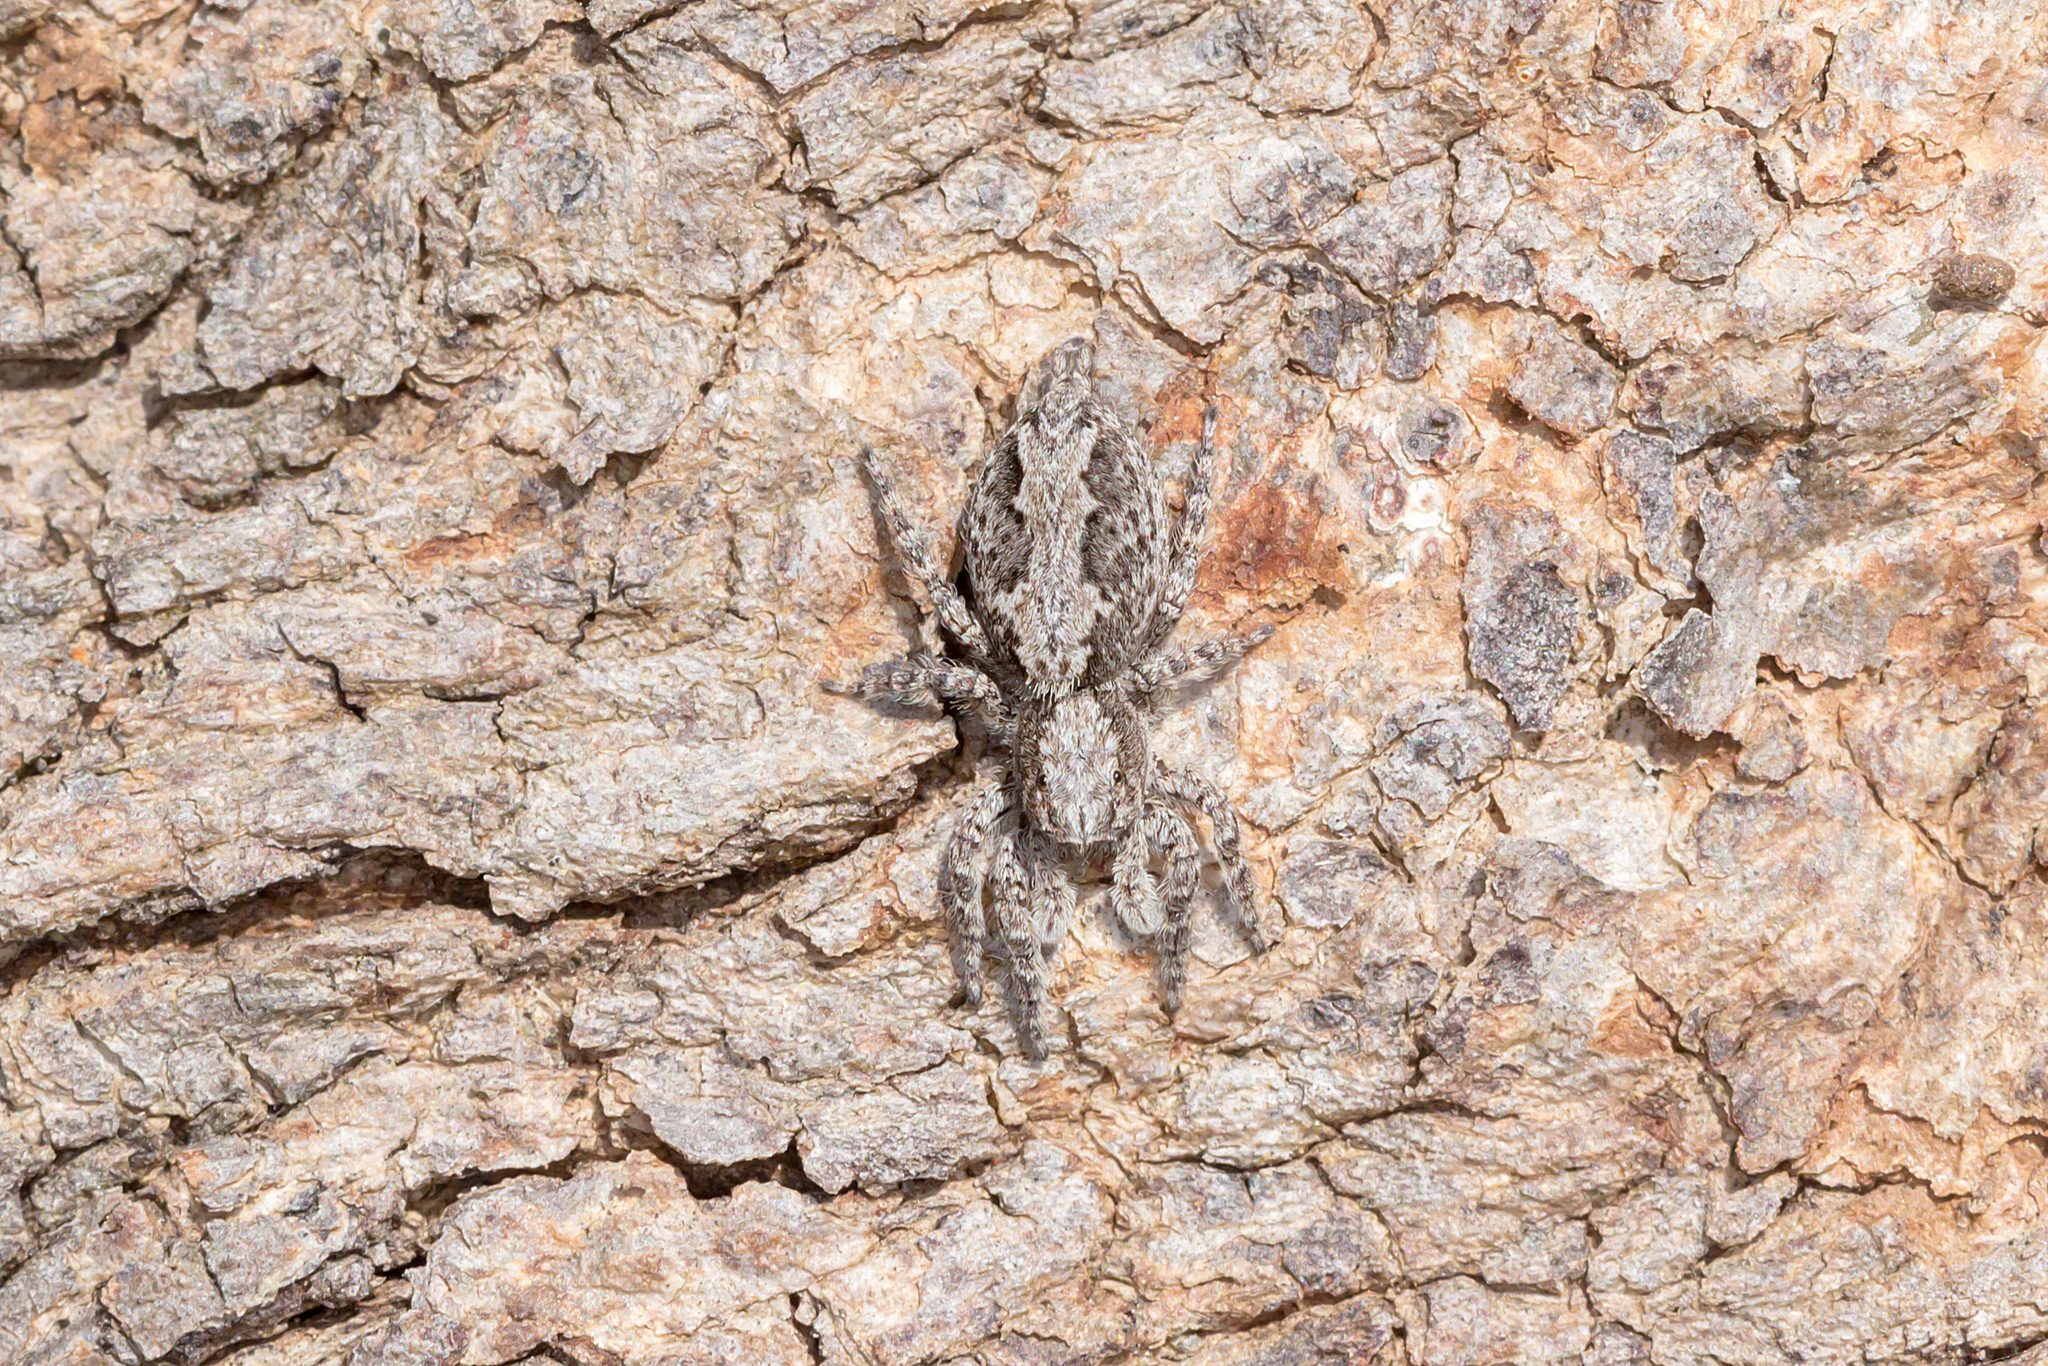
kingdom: Animalia
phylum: Arthropoda
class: Arachnida
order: Araneae
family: Salticidae
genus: Clynotis
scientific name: Clynotis severus
